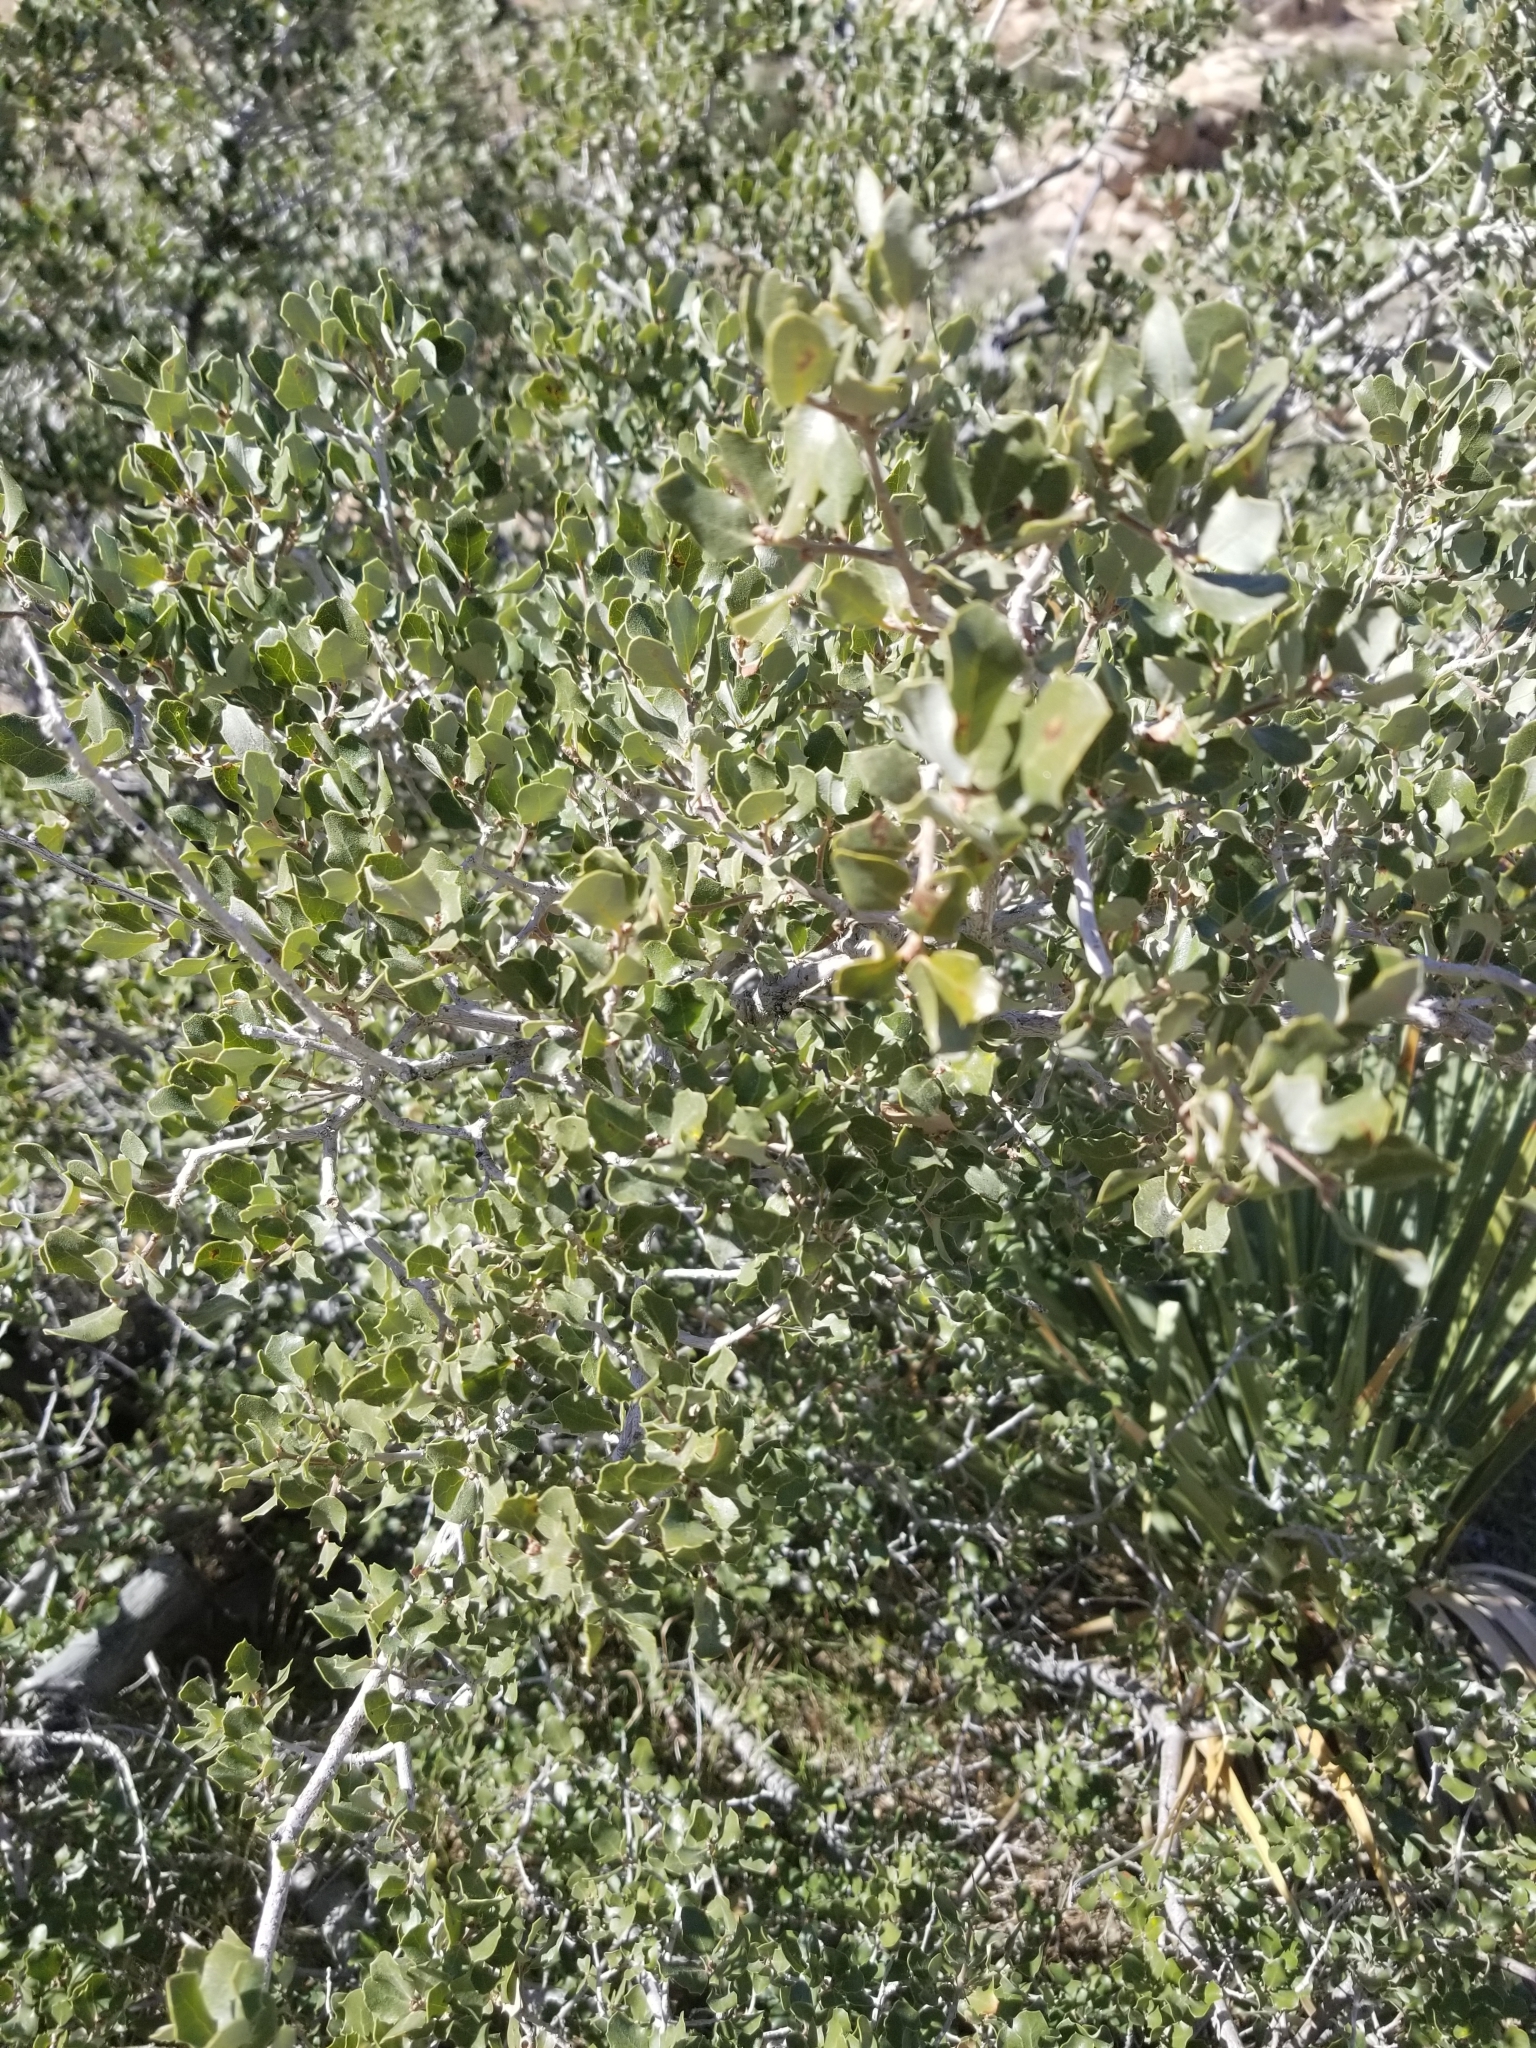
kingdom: Plantae
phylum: Tracheophyta
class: Magnoliopsida
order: Fagales
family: Fagaceae
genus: Quercus
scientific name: Quercus cornelius-mulleri
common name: Muller oak
